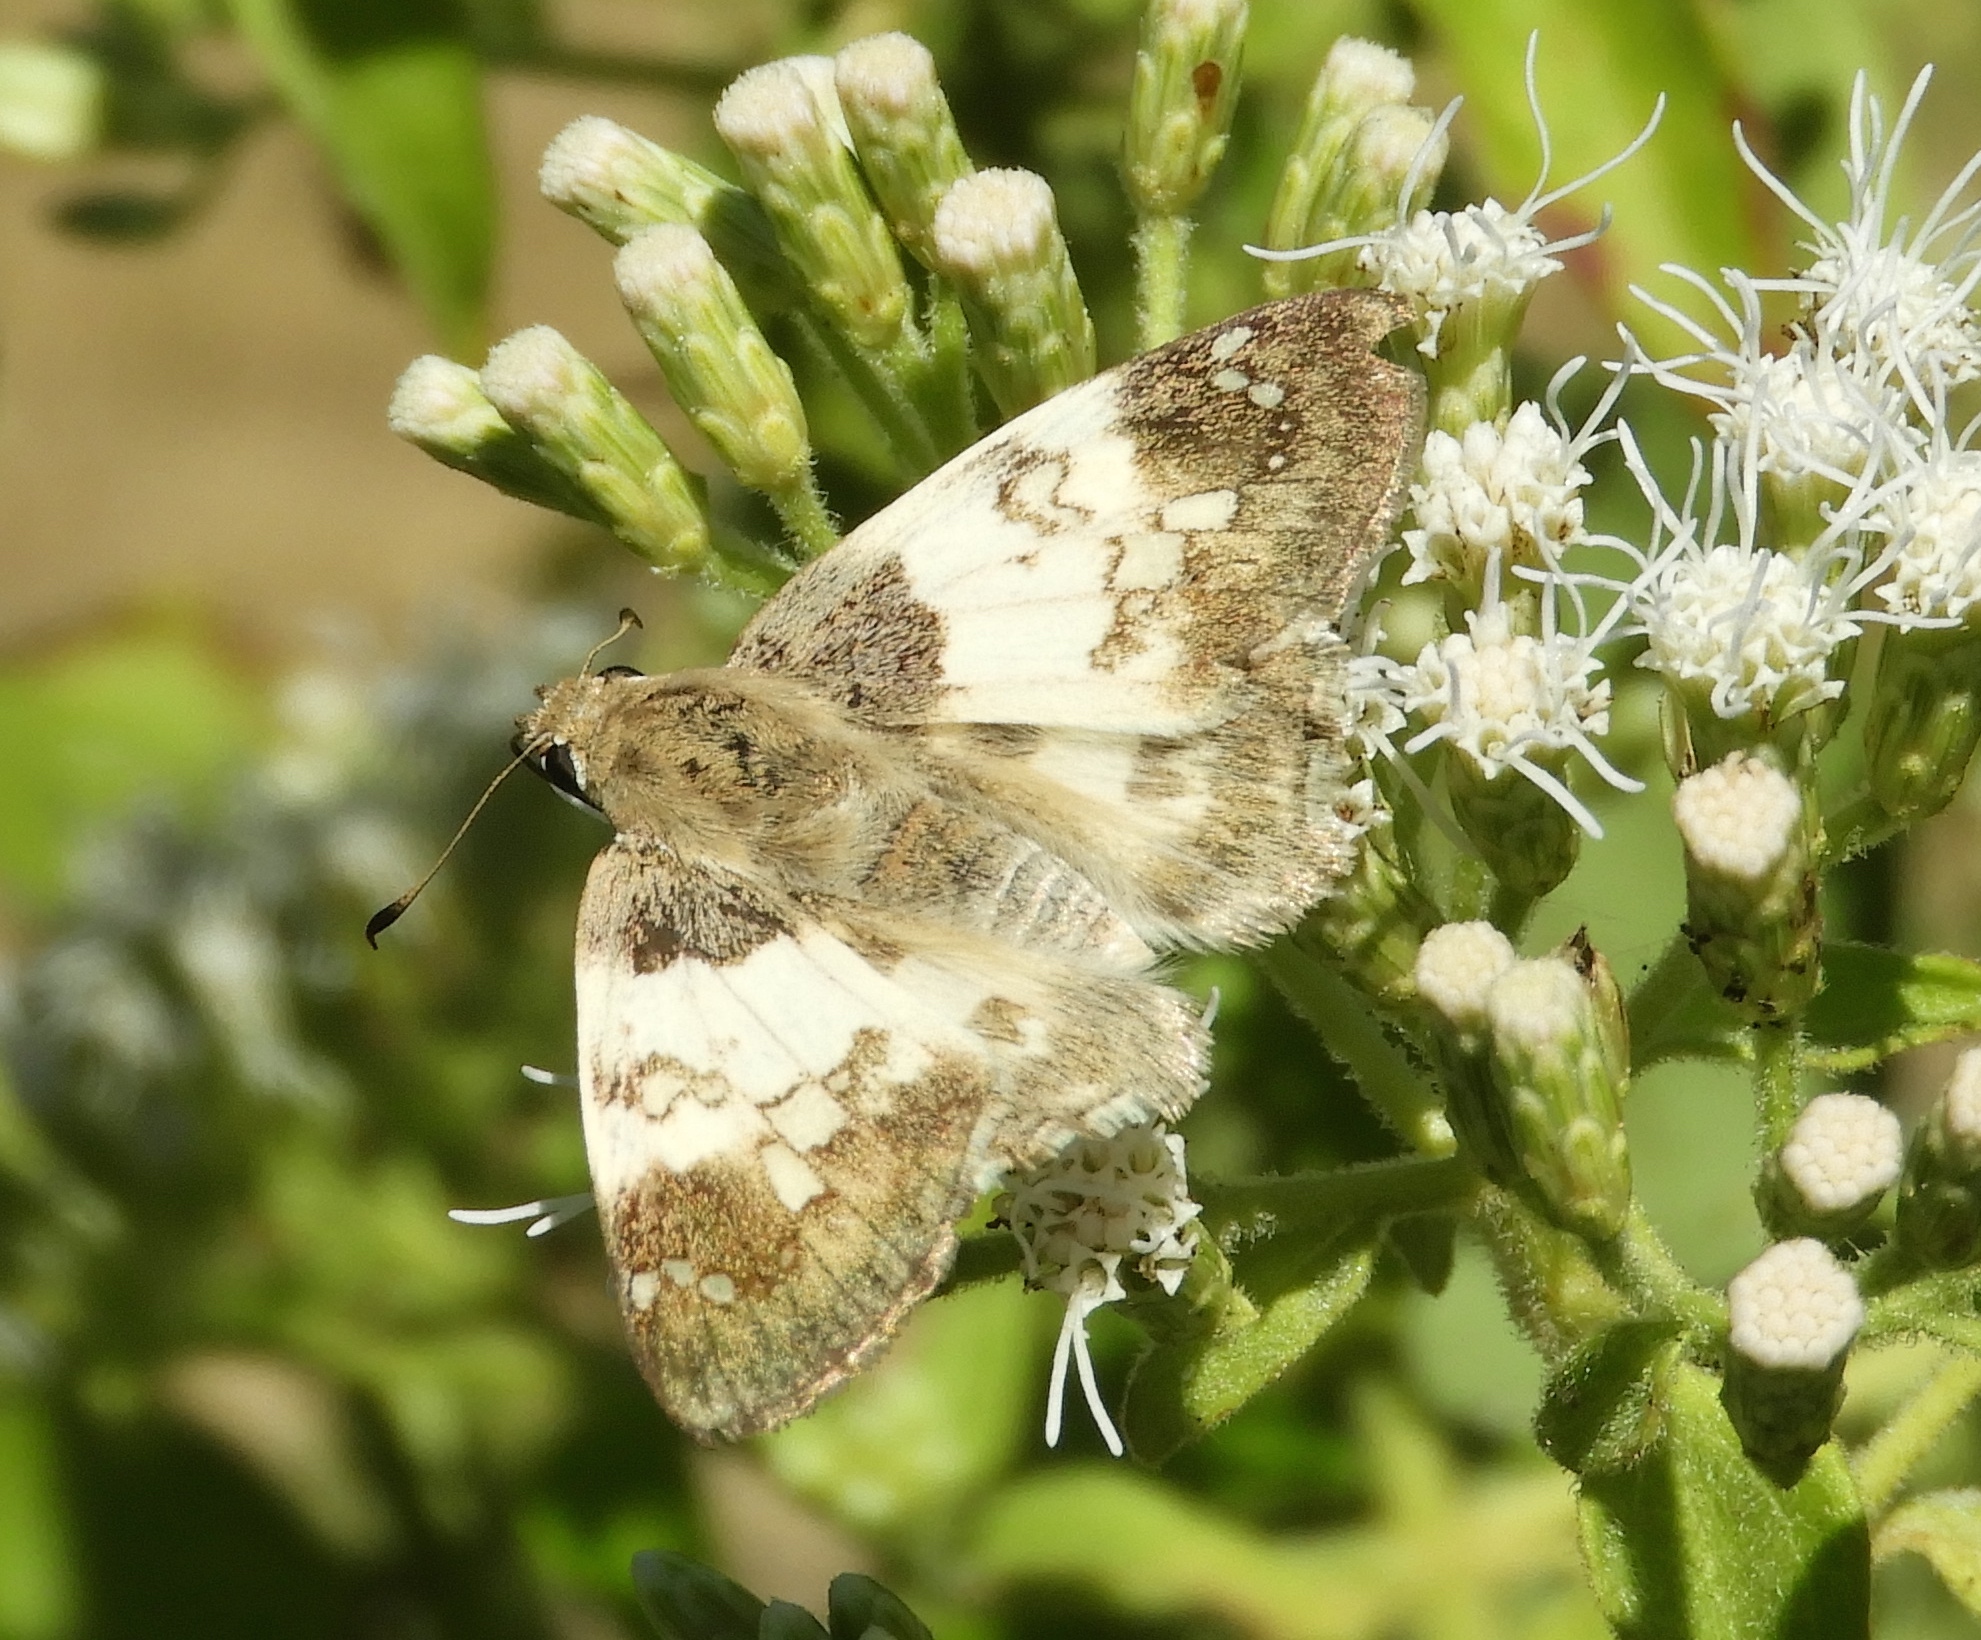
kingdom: Animalia
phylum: Arthropoda
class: Insecta
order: Lepidoptera
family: Hesperiidae
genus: Polyctor
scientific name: Polyctor cleta
